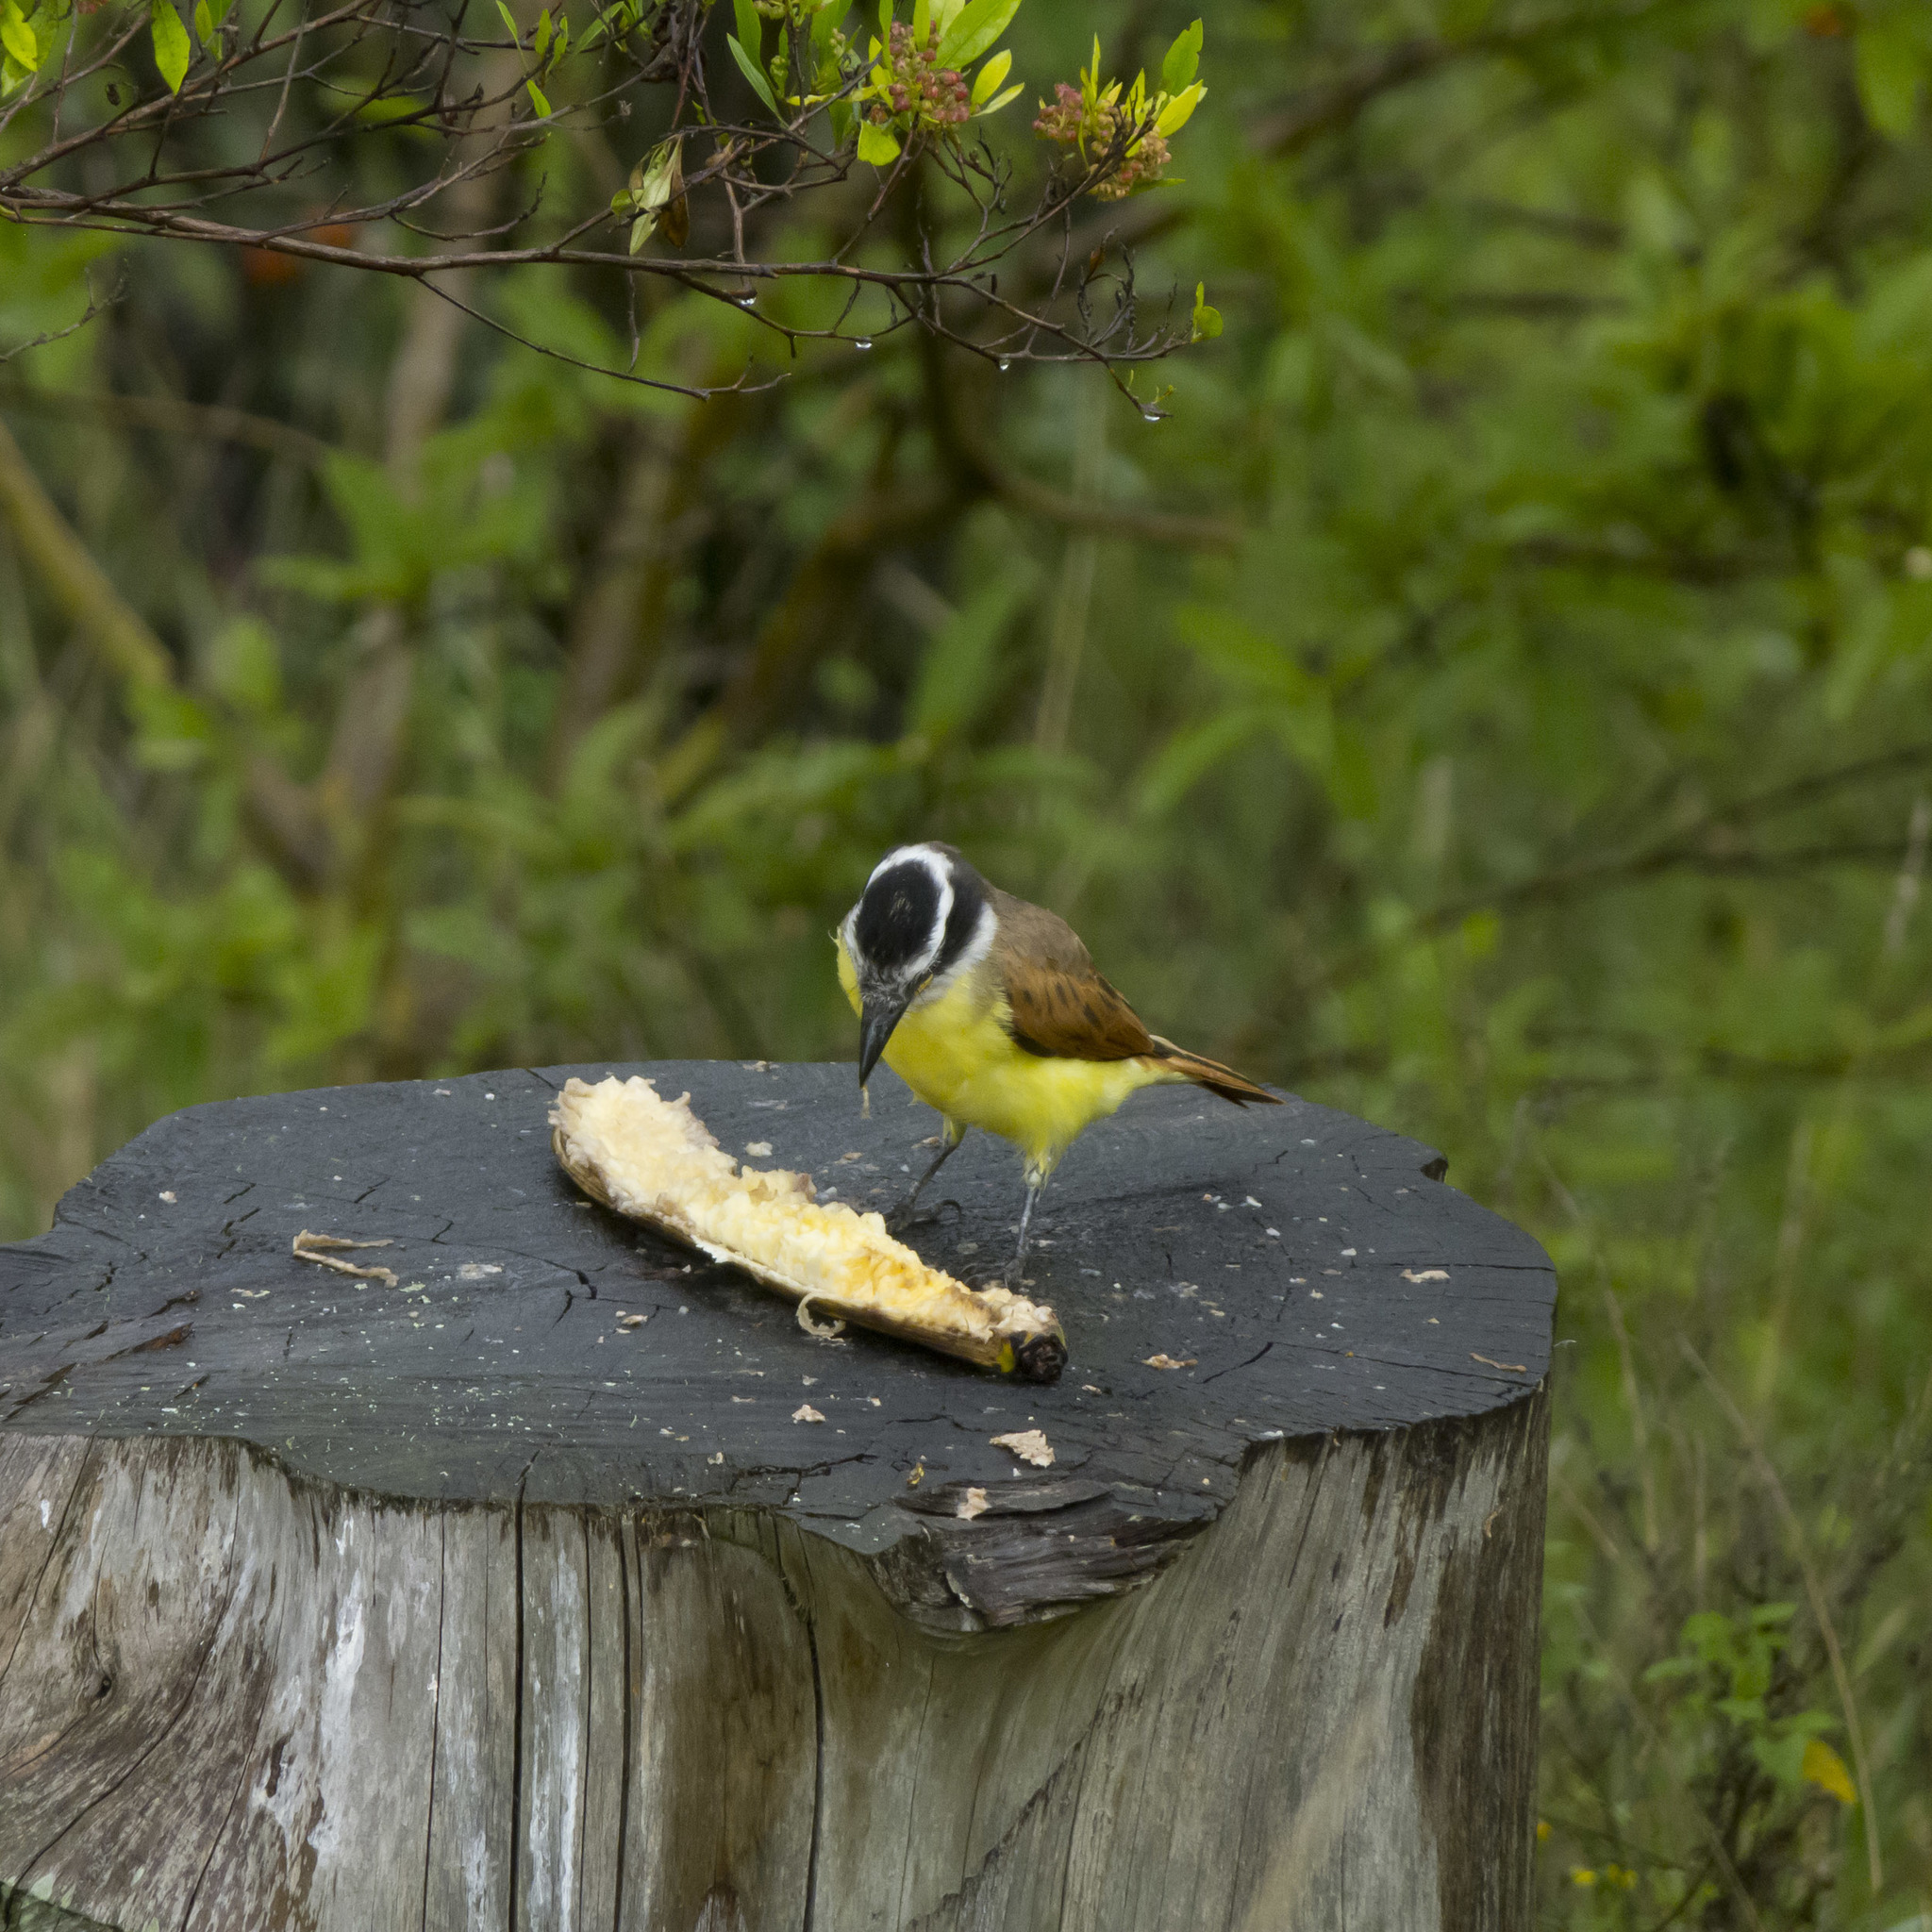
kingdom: Animalia
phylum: Chordata
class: Aves
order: Passeriformes
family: Tyrannidae
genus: Pitangus
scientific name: Pitangus sulphuratus
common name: Great kiskadee
